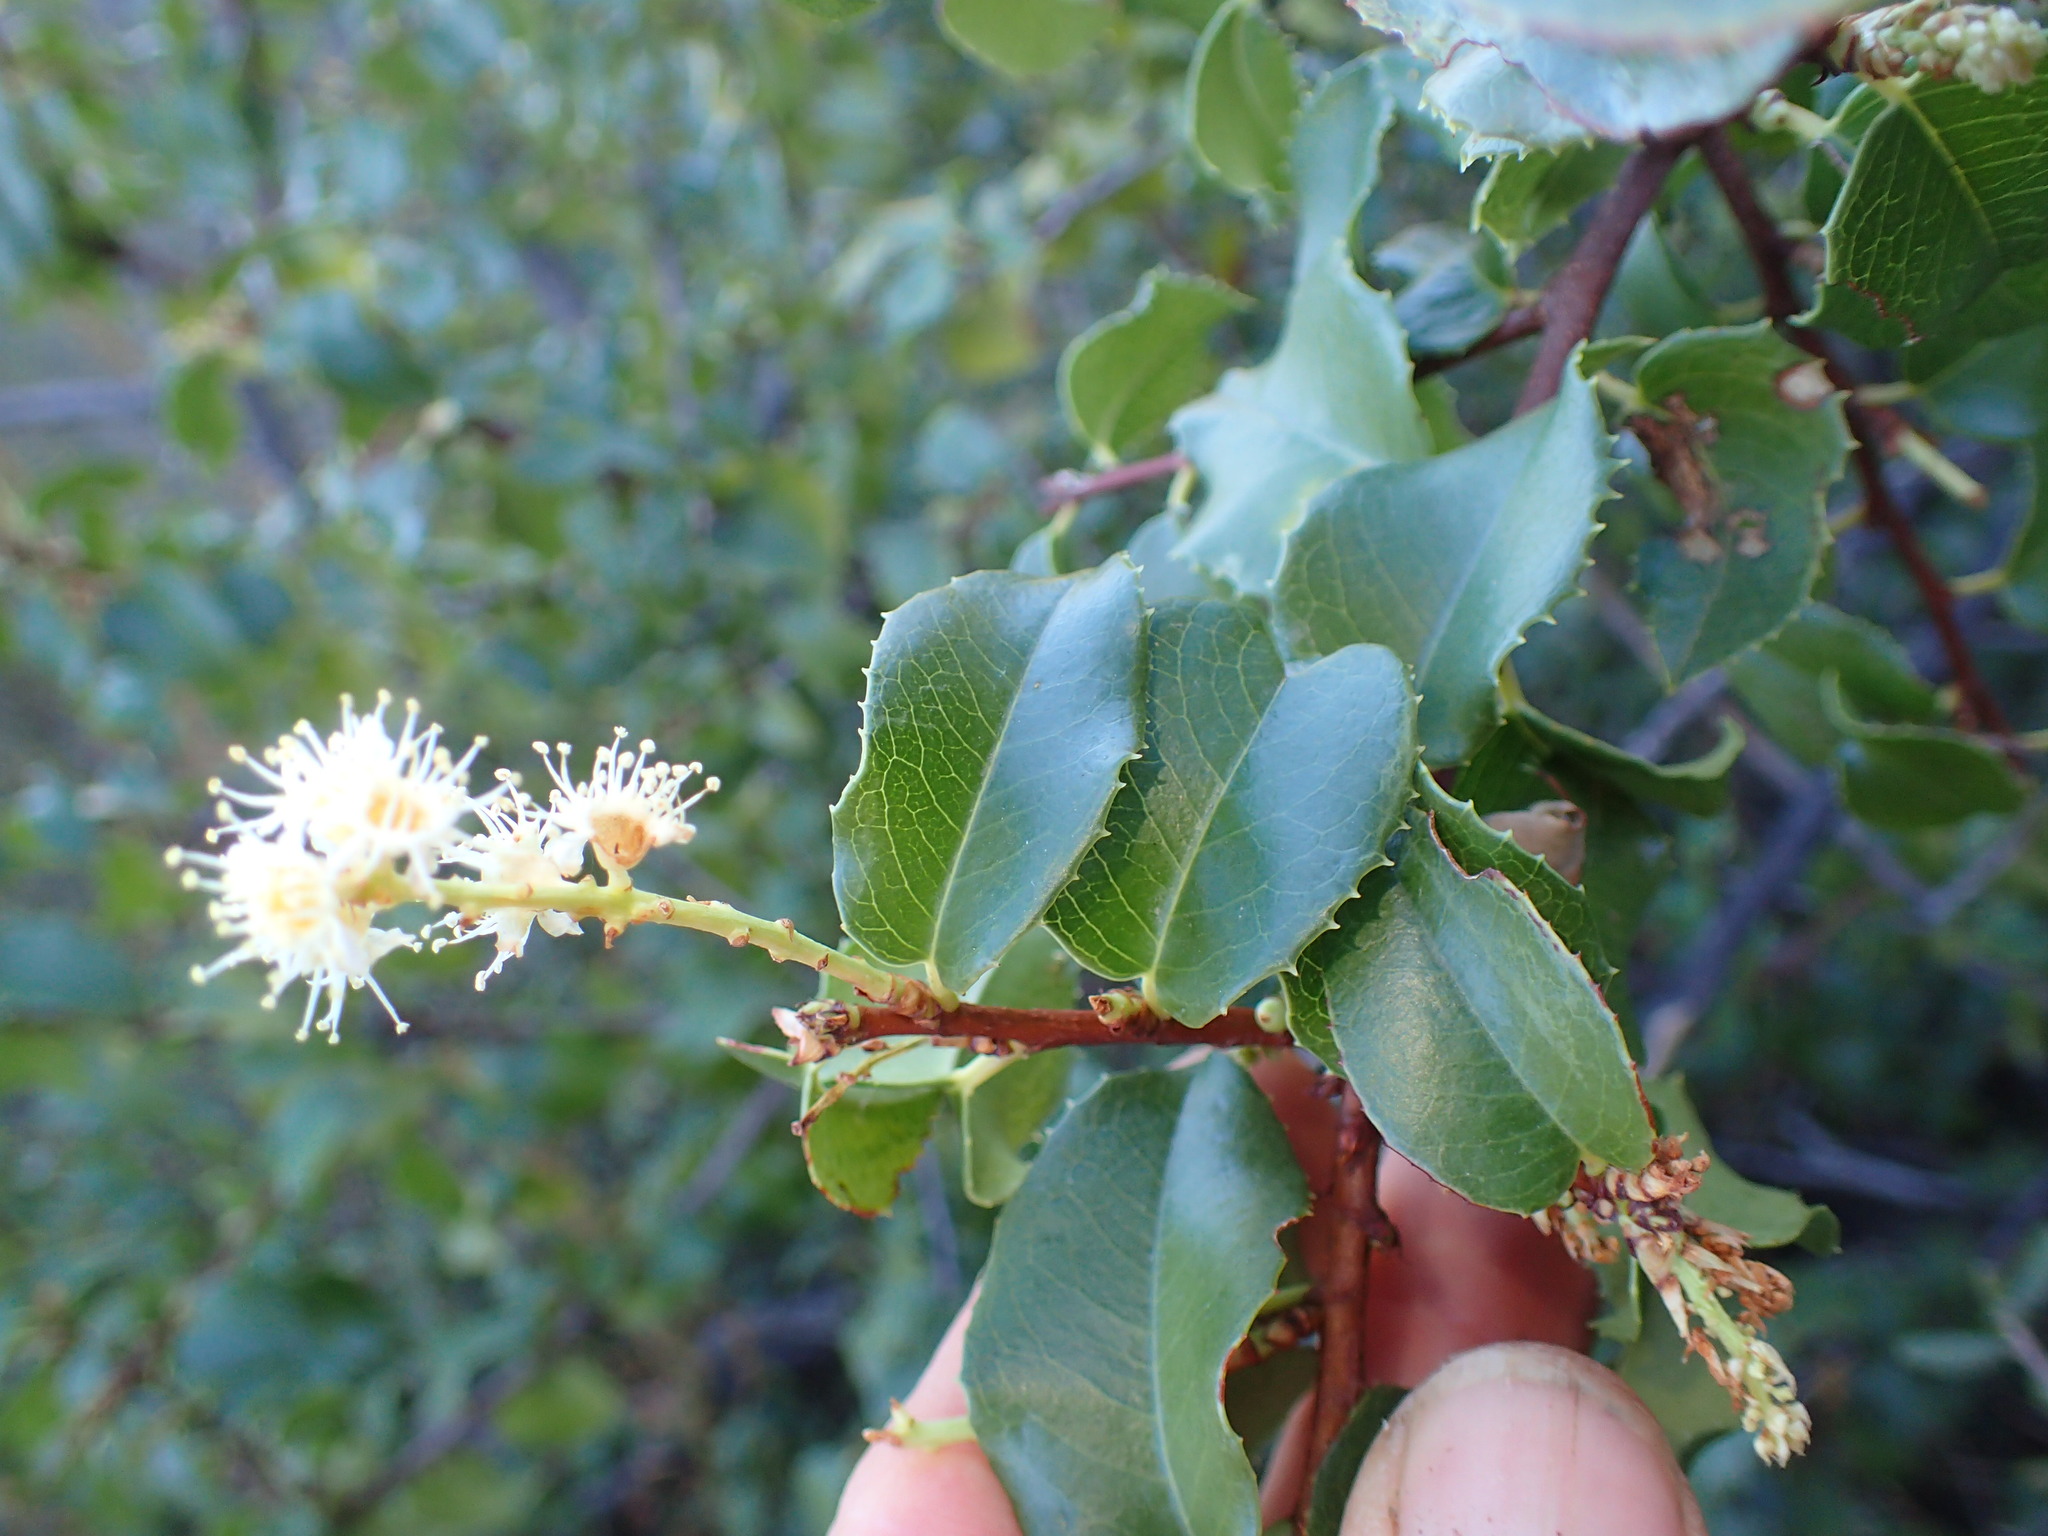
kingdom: Plantae
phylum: Tracheophyta
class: Magnoliopsida
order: Rosales
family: Rosaceae
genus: Prunus
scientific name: Prunus ilicifolia
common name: Hollyleaf cherry
